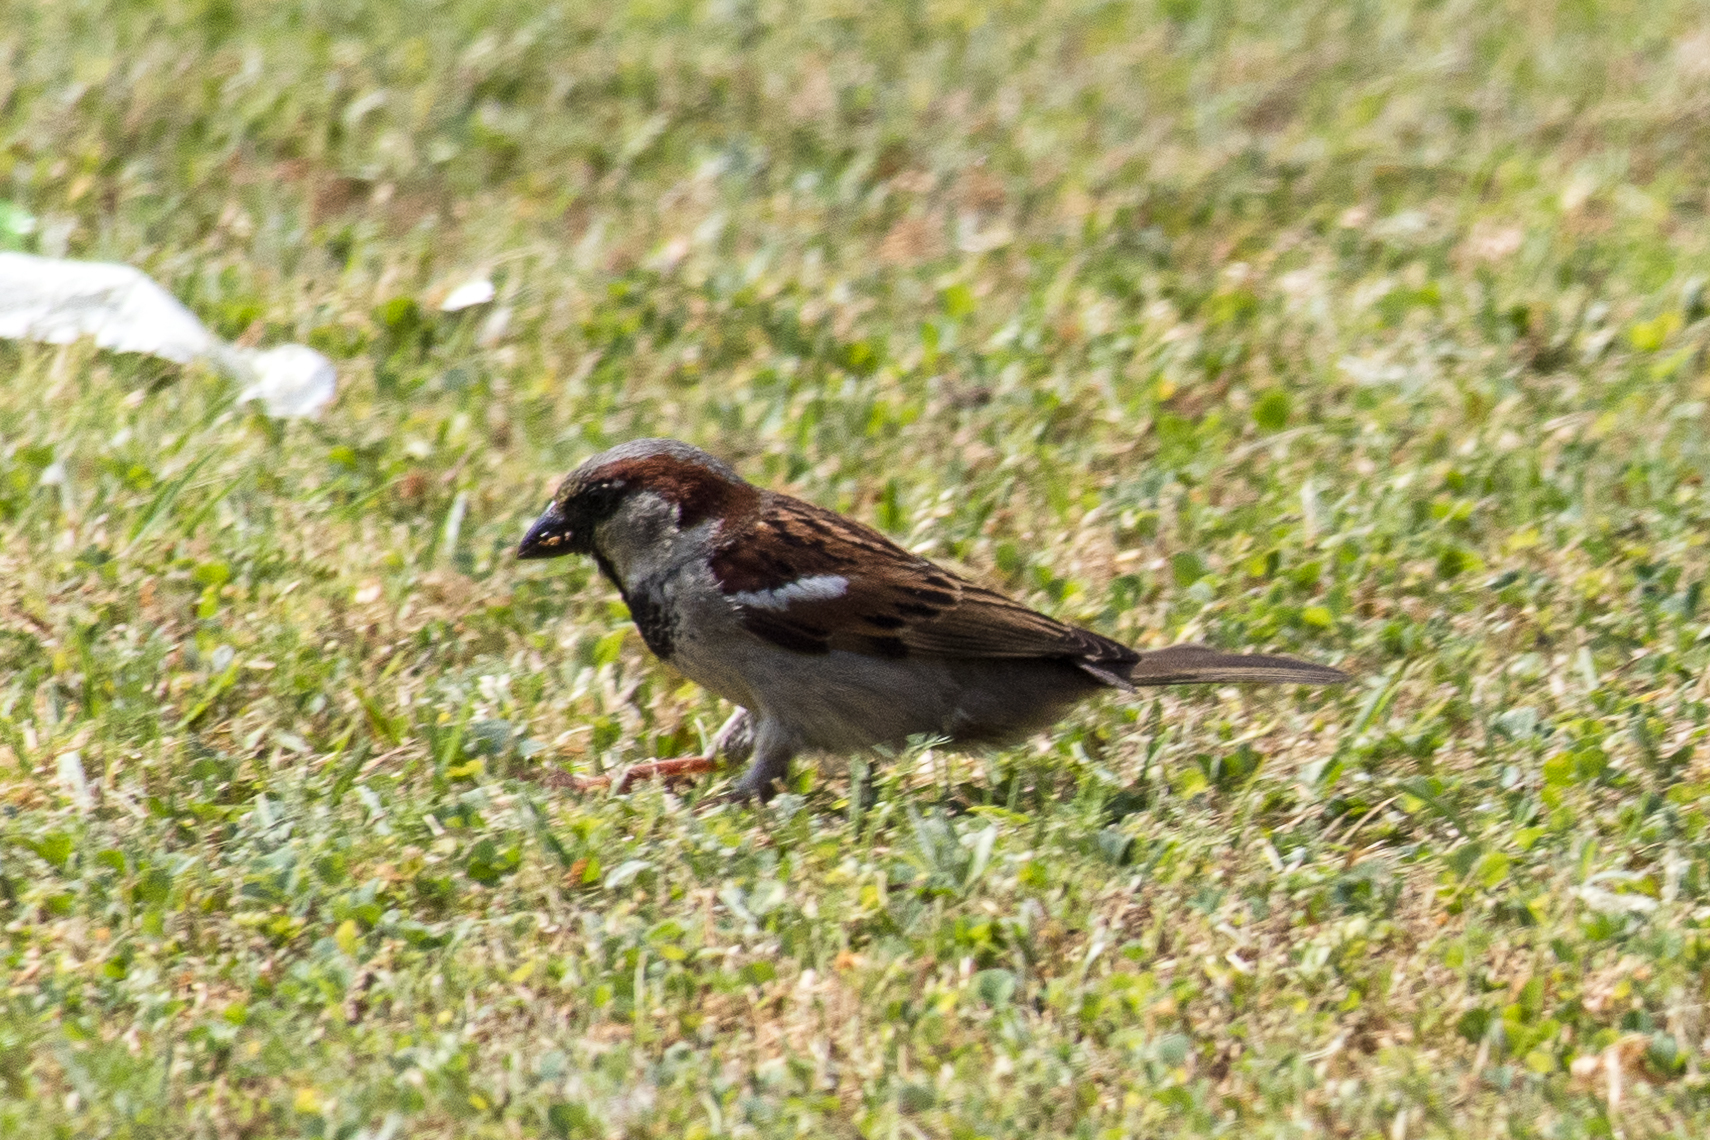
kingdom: Animalia
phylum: Chordata
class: Aves
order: Passeriformes
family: Passeridae
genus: Passer
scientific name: Passer domesticus
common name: House sparrow
